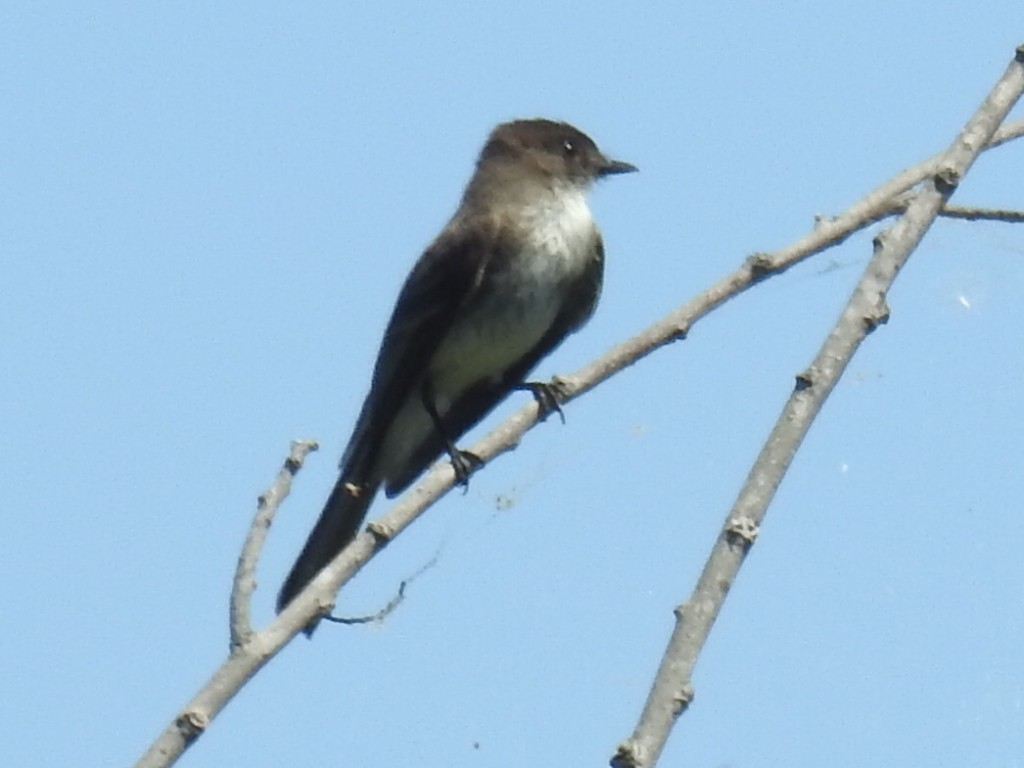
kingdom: Animalia
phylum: Chordata
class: Aves
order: Passeriformes
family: Tyrannidae
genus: Sayornis
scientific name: Sayornis phoebe
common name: Eastern phoebe
